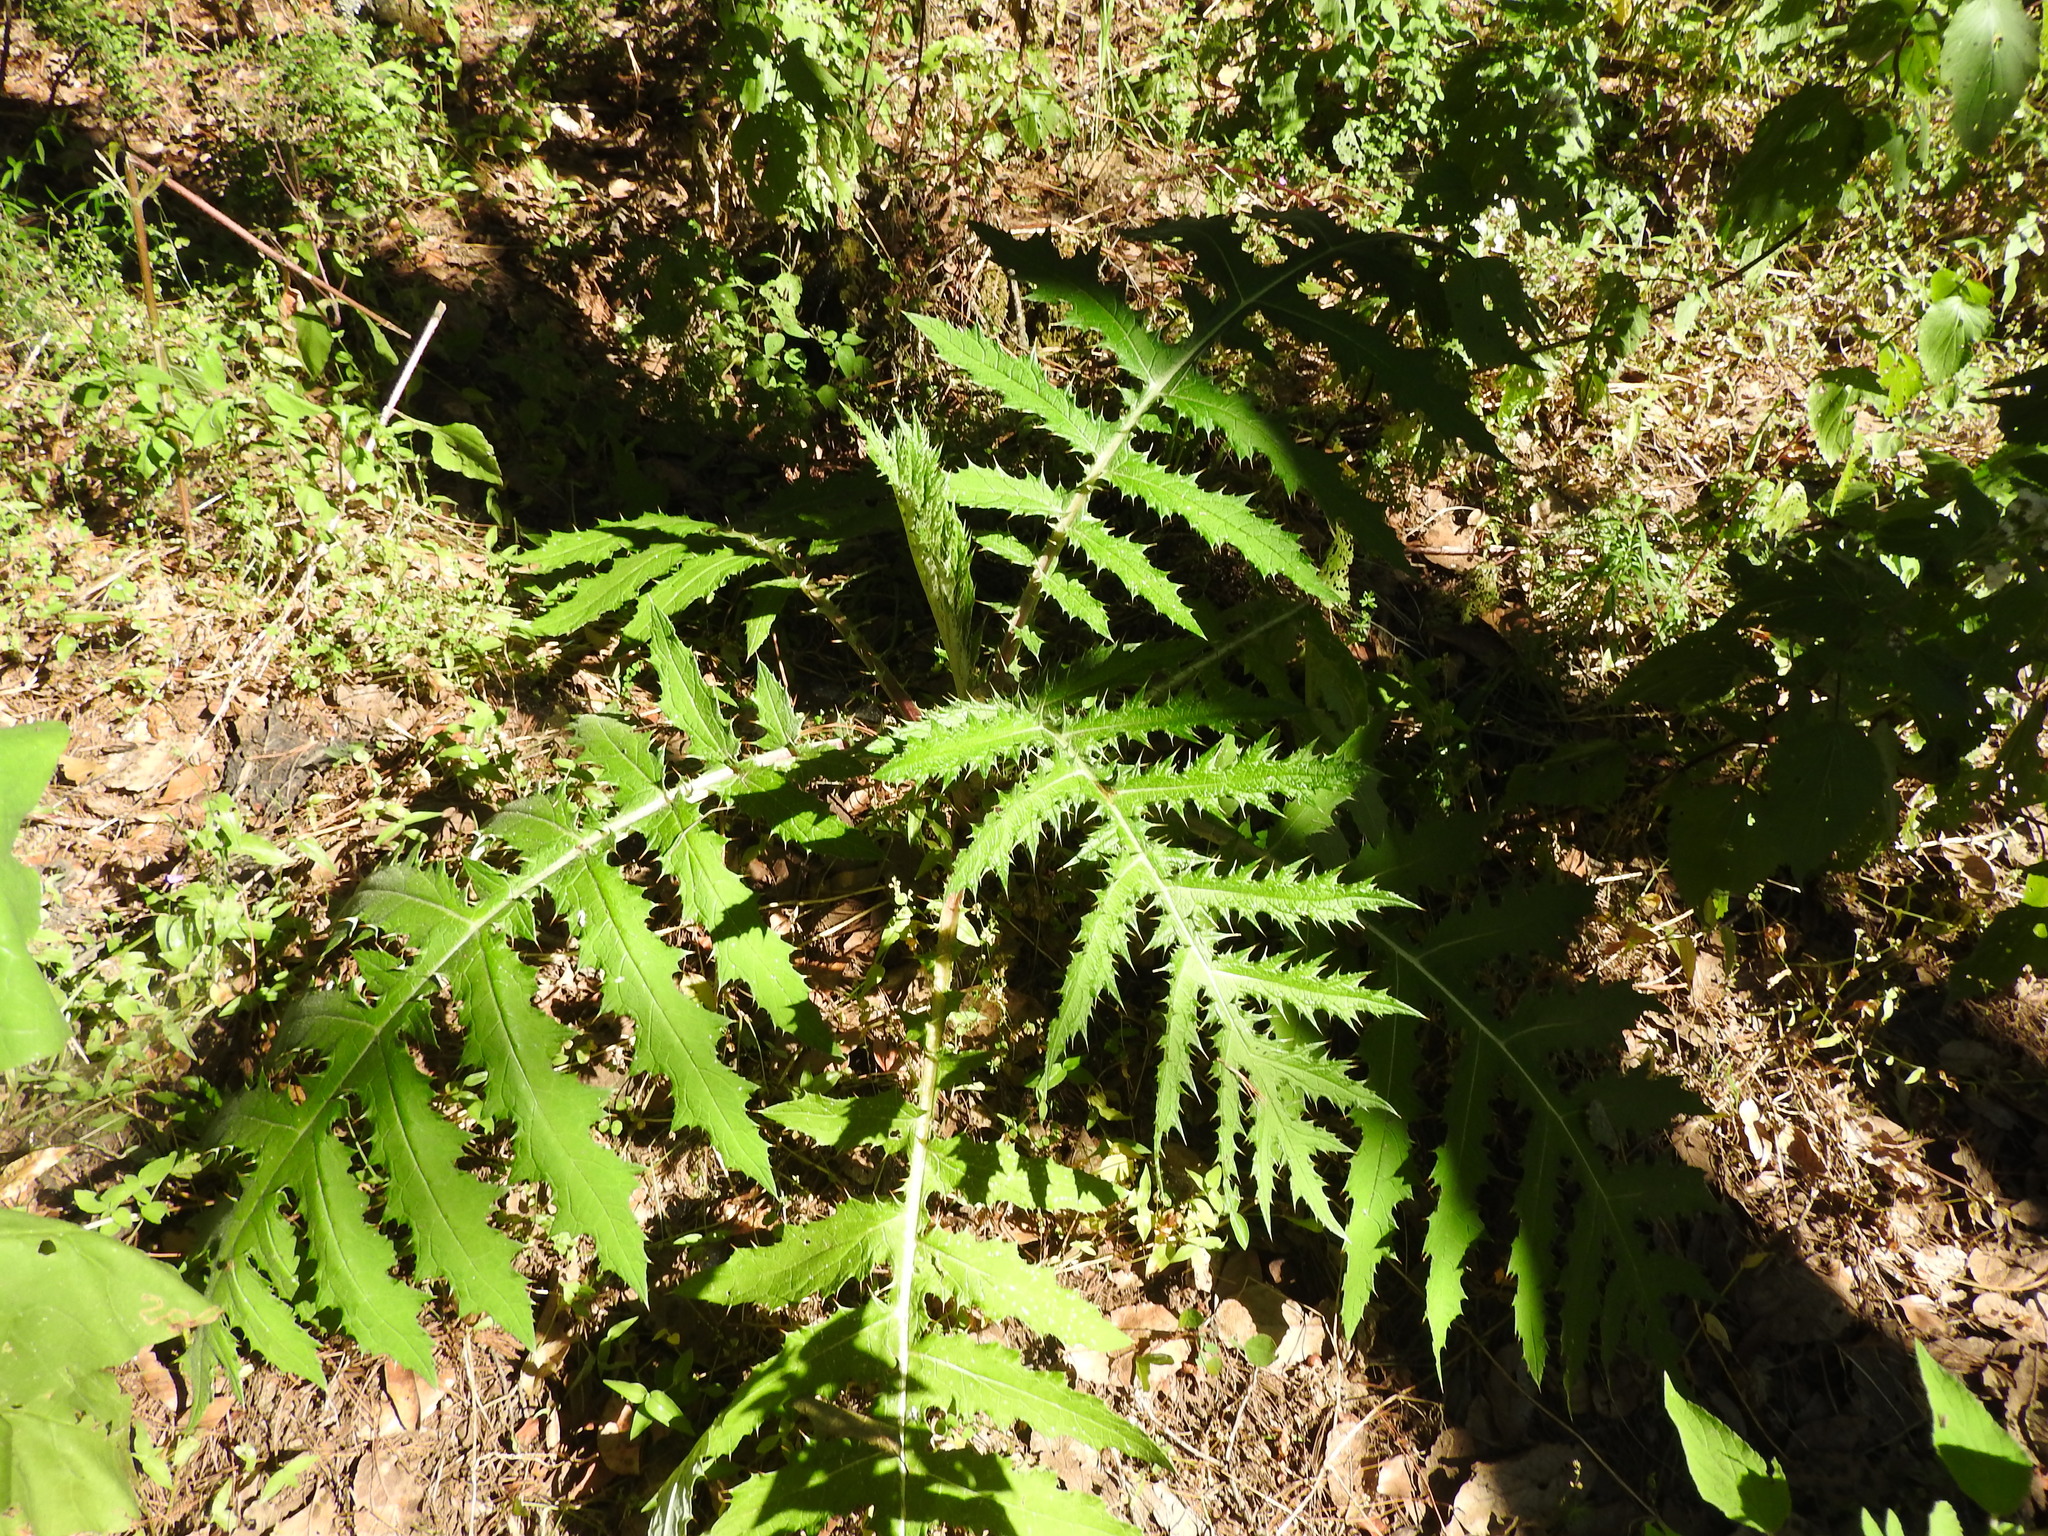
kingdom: Plantae
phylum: Tracheophyta
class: Magnoliopsida
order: Asterales
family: Asteraceae
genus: Cirsium
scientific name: Cirsium ehrenbergii
